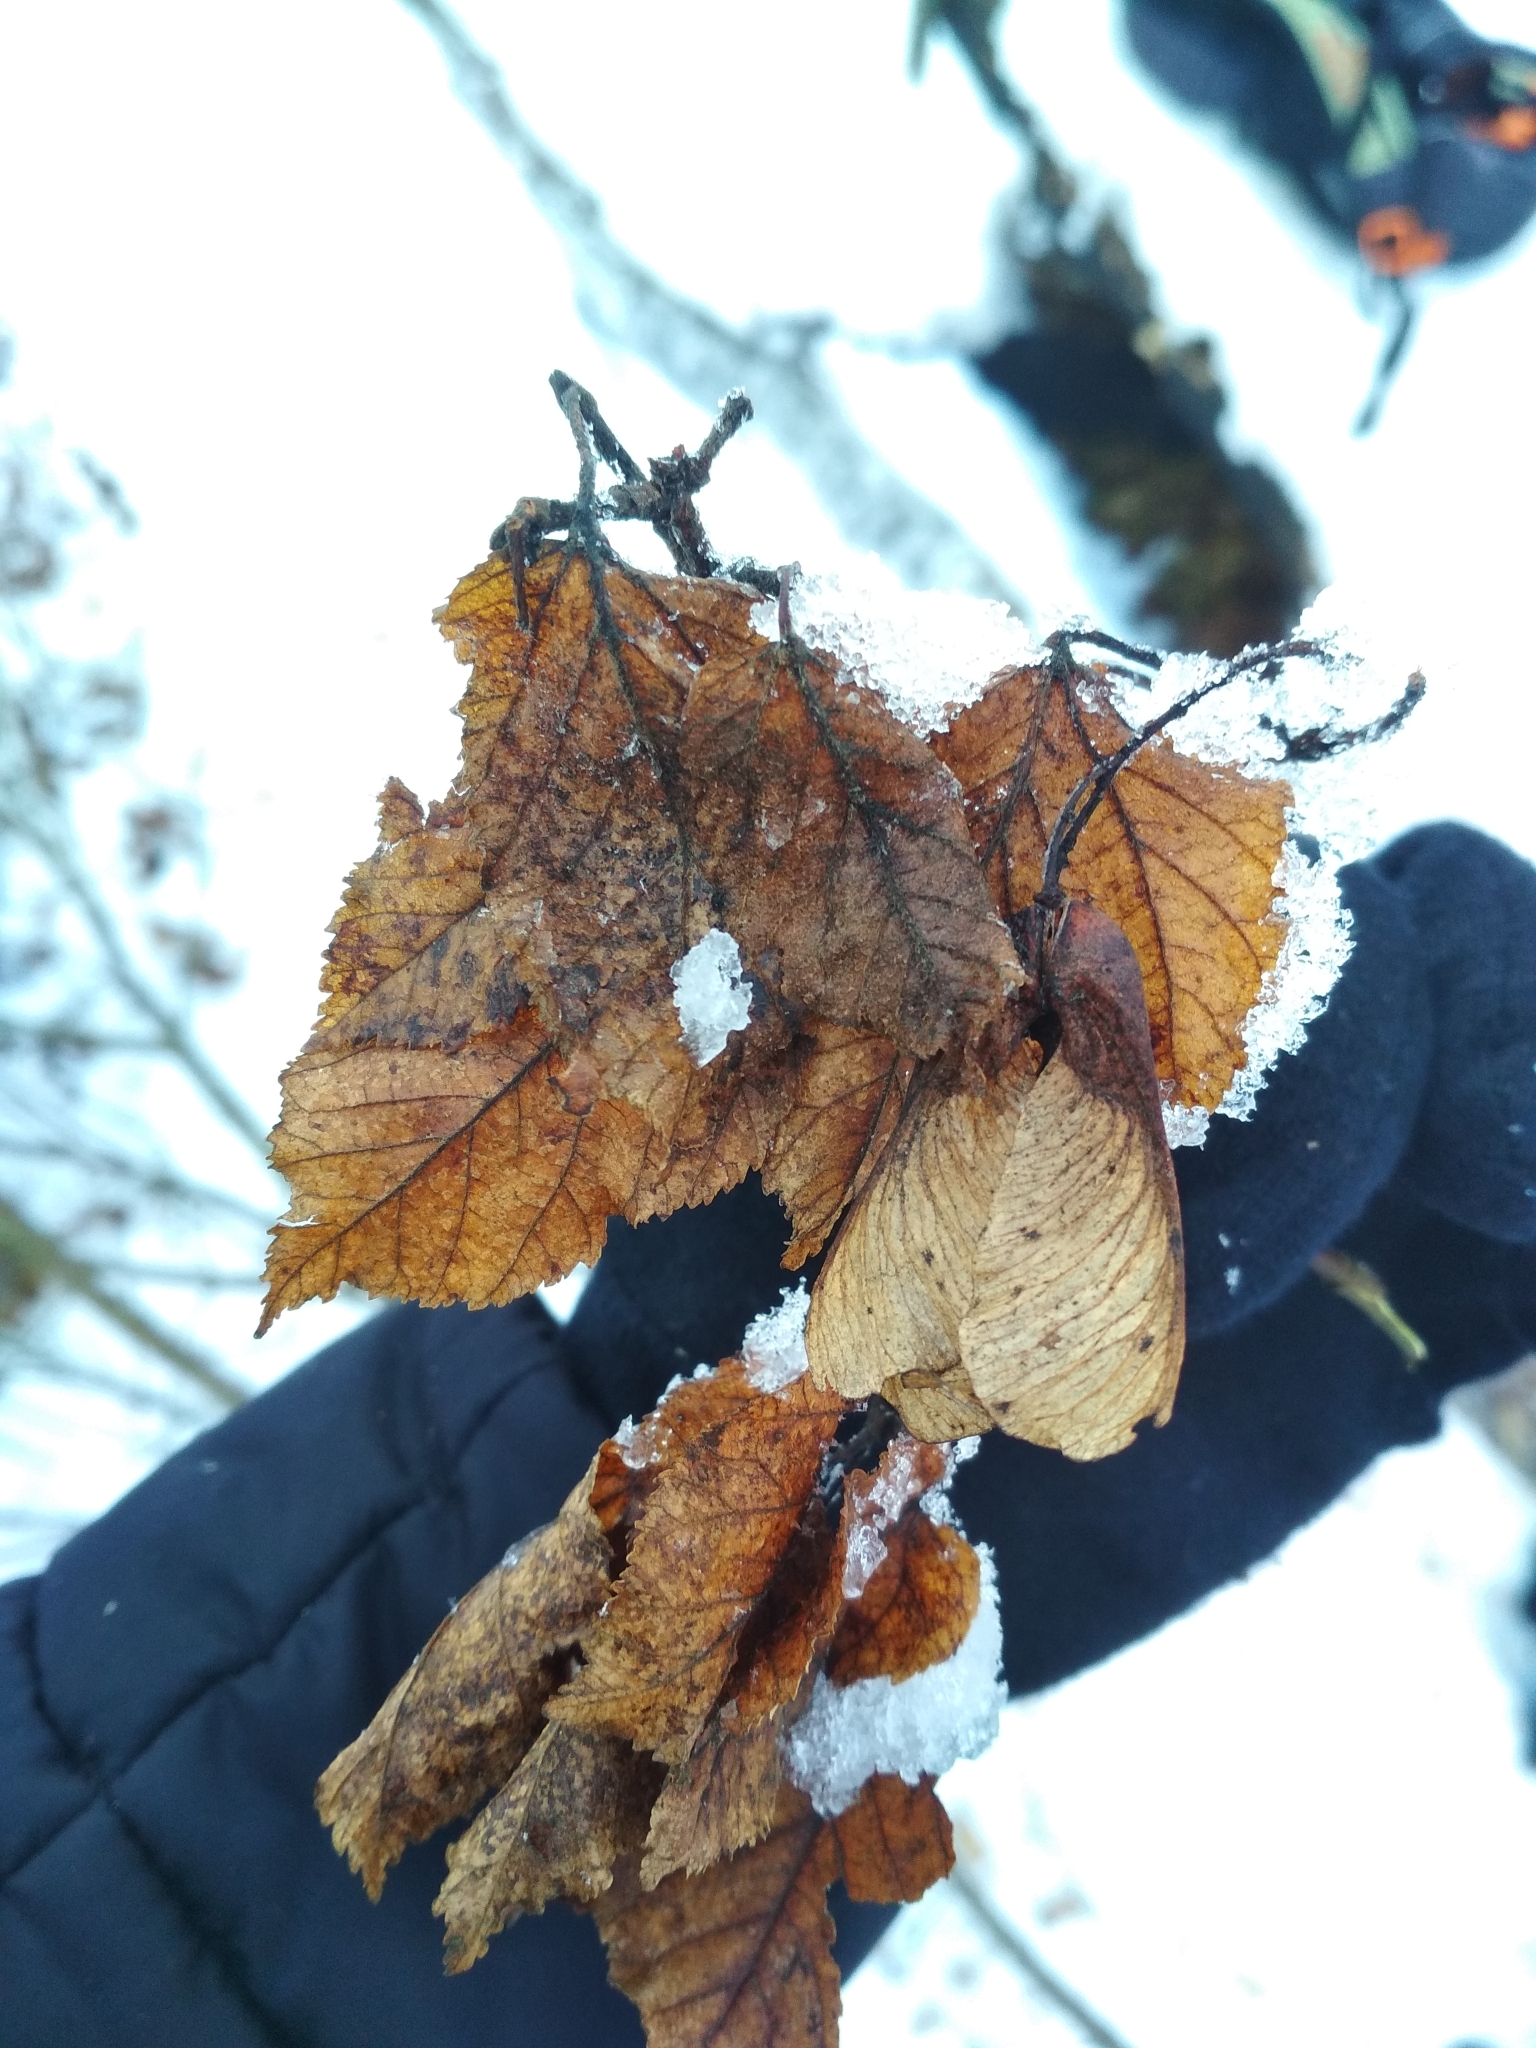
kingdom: Plantae
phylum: Tracheophyta
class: Magnoliopsida
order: Sapindales
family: Sapindaceae
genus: Acer
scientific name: Acer tataricum
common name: Tartar maple
